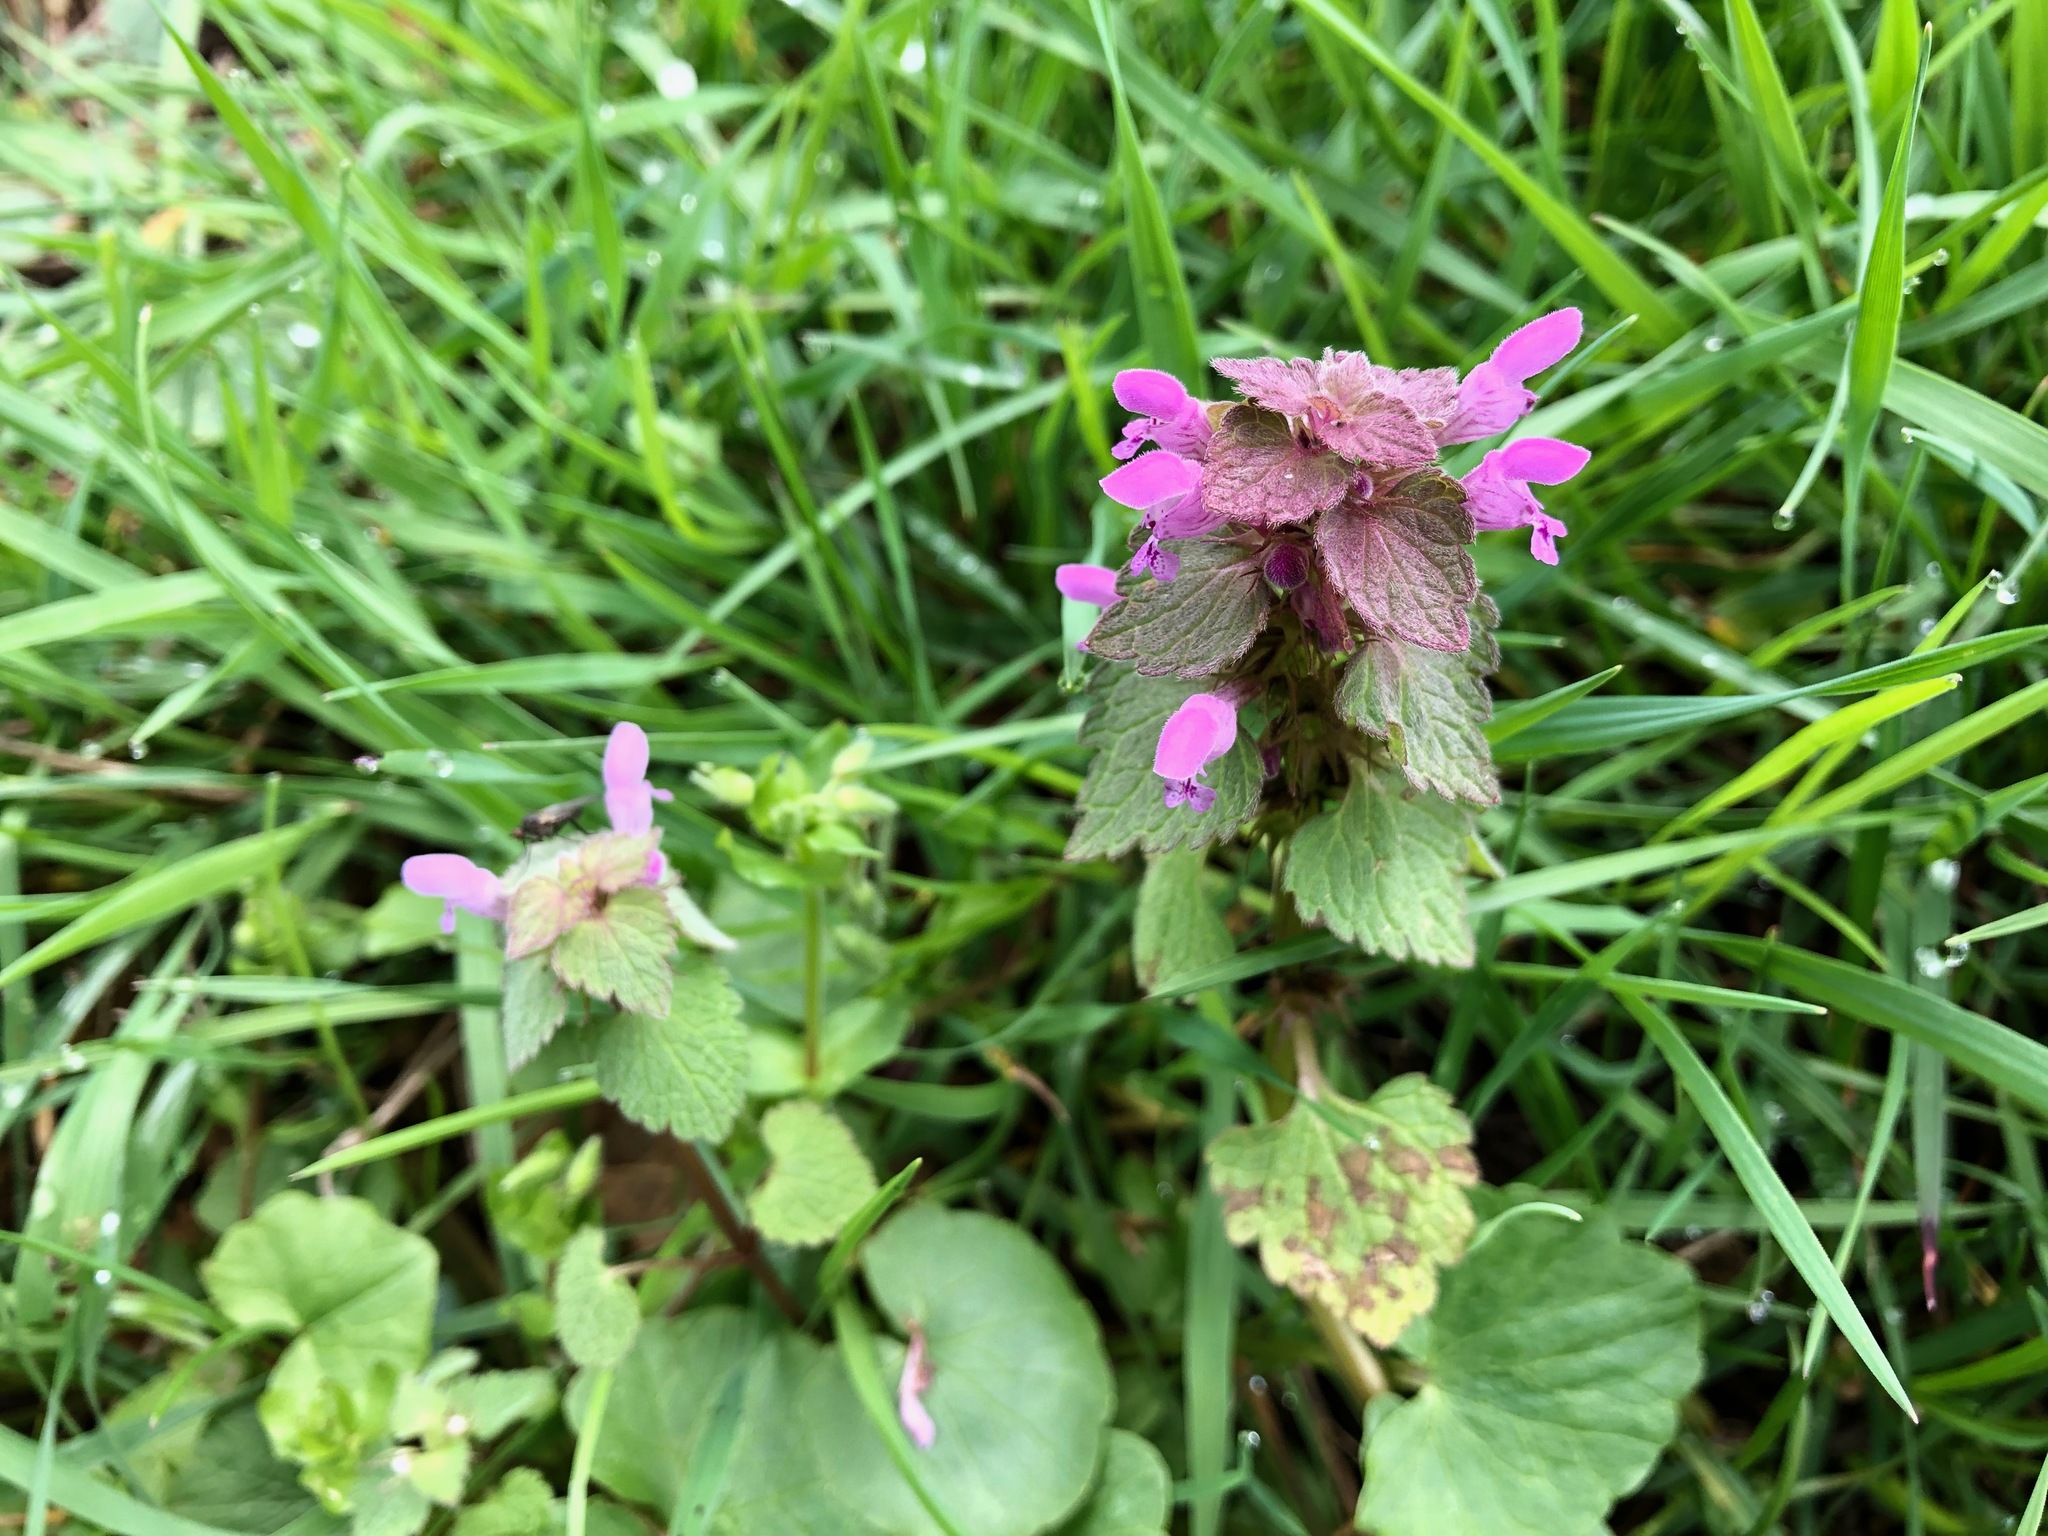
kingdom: Plantae
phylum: Tracheophyta
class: Magnoliopsida
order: Lamiales
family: Lamiaceae
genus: Lamium
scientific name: Lamium purpureum
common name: Red dead-nettle
